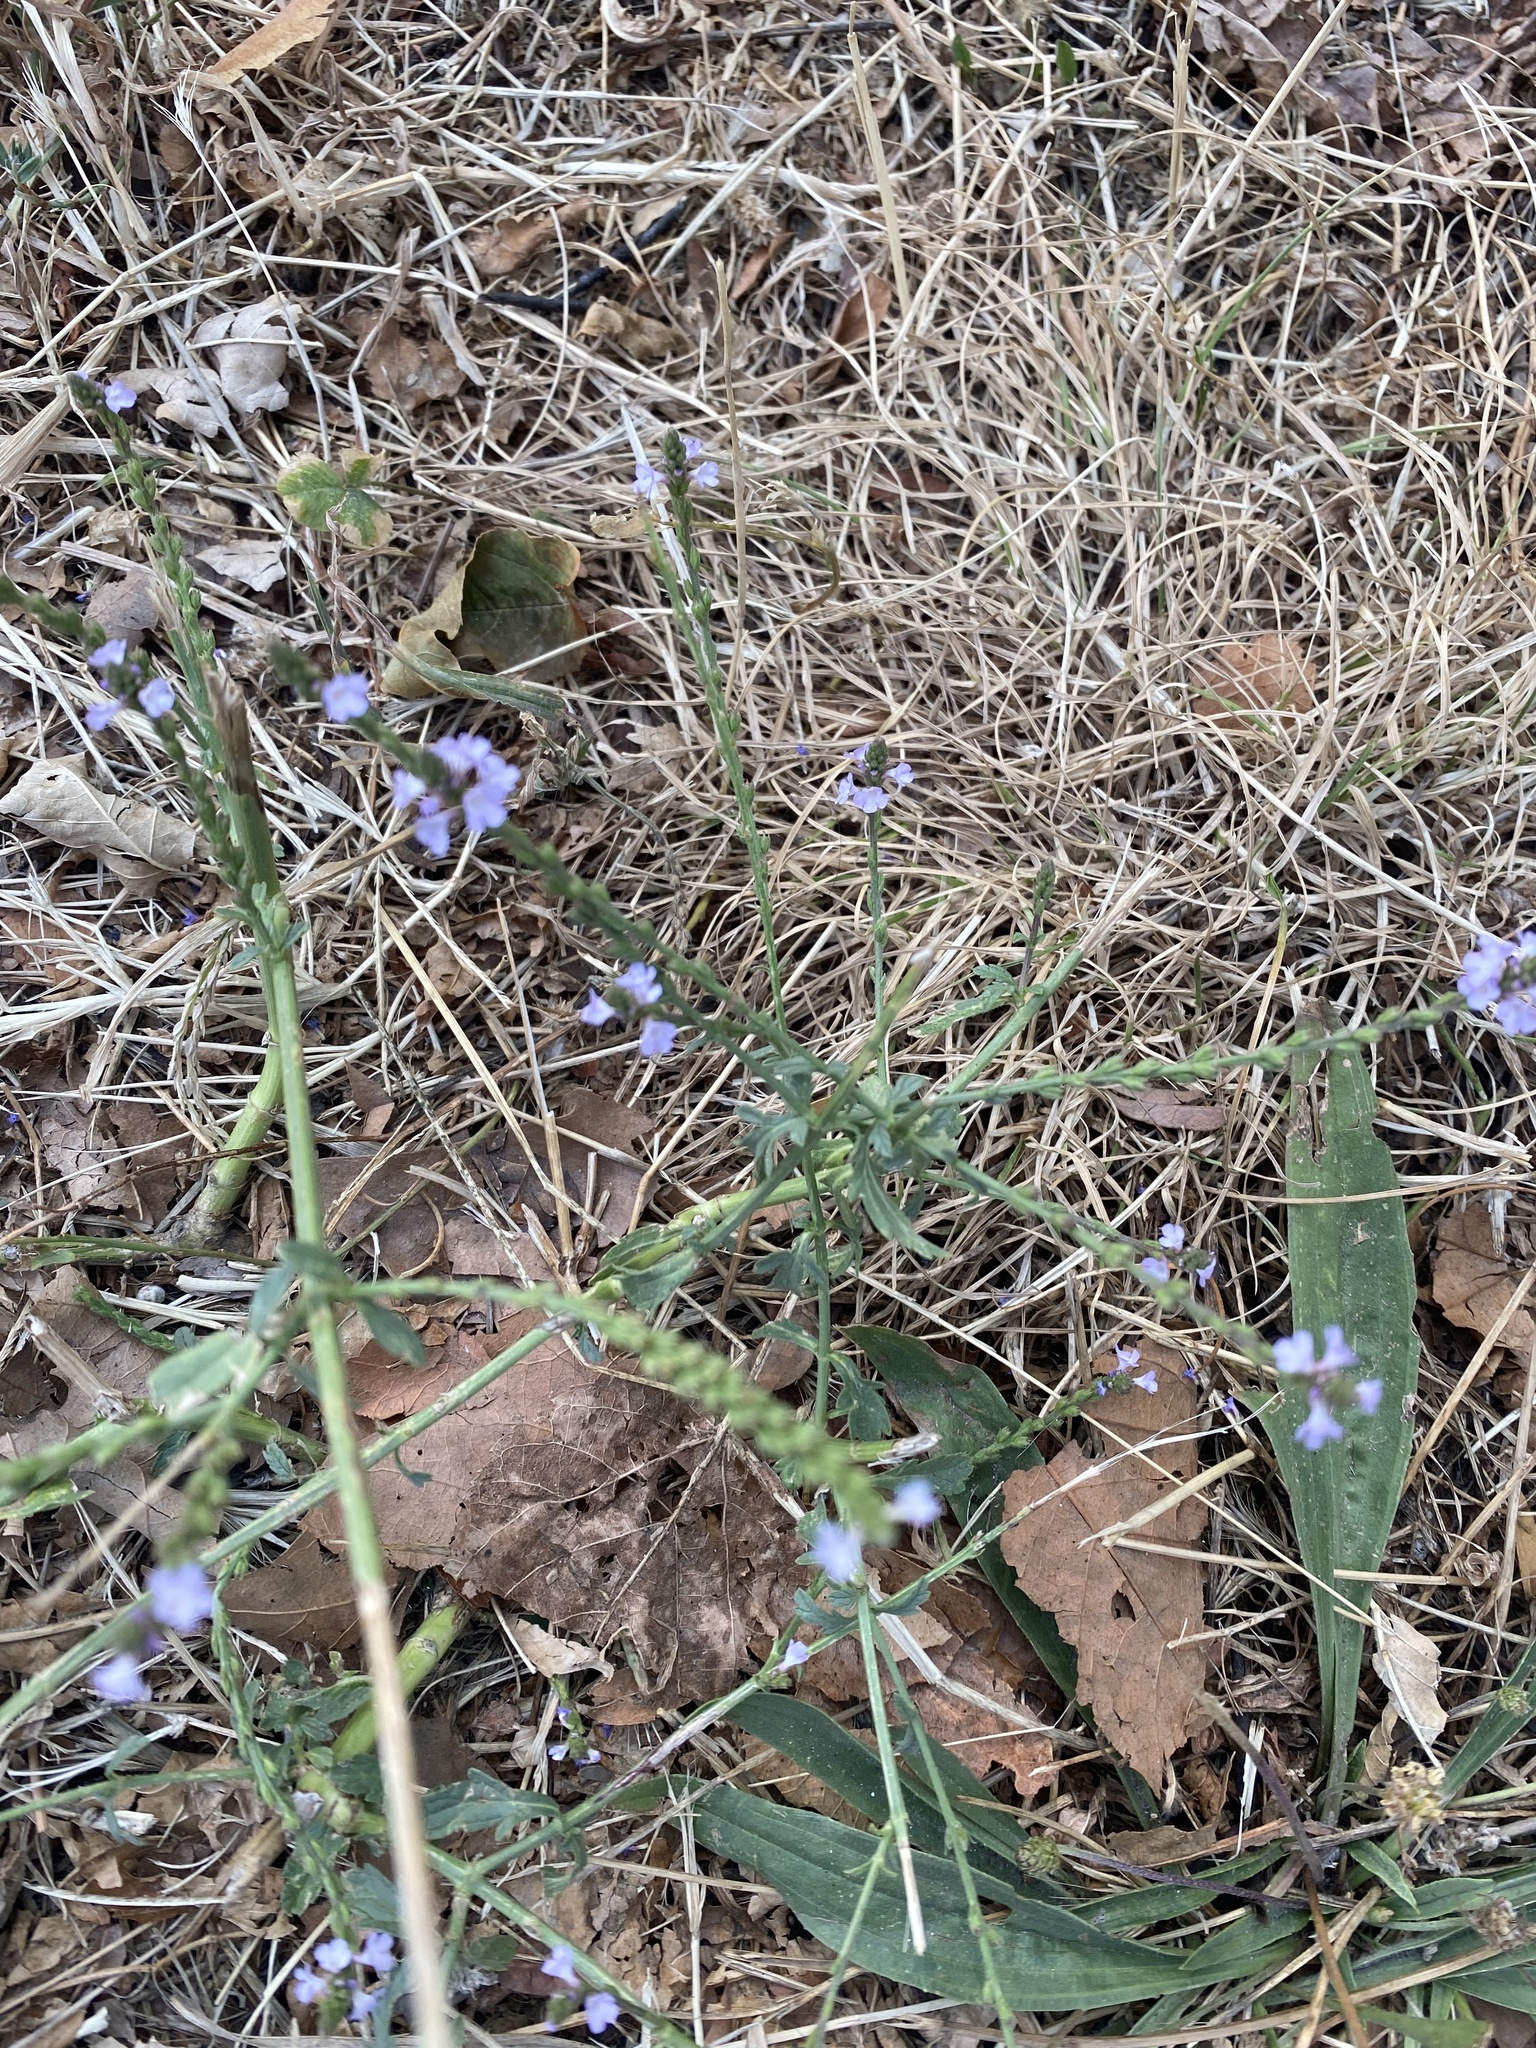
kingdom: Plantae
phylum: Tracheophyta
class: Magnoliopsida
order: Lamiales
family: Verbenaceae
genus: Verbena
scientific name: Verbena officinalis
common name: Vervain
